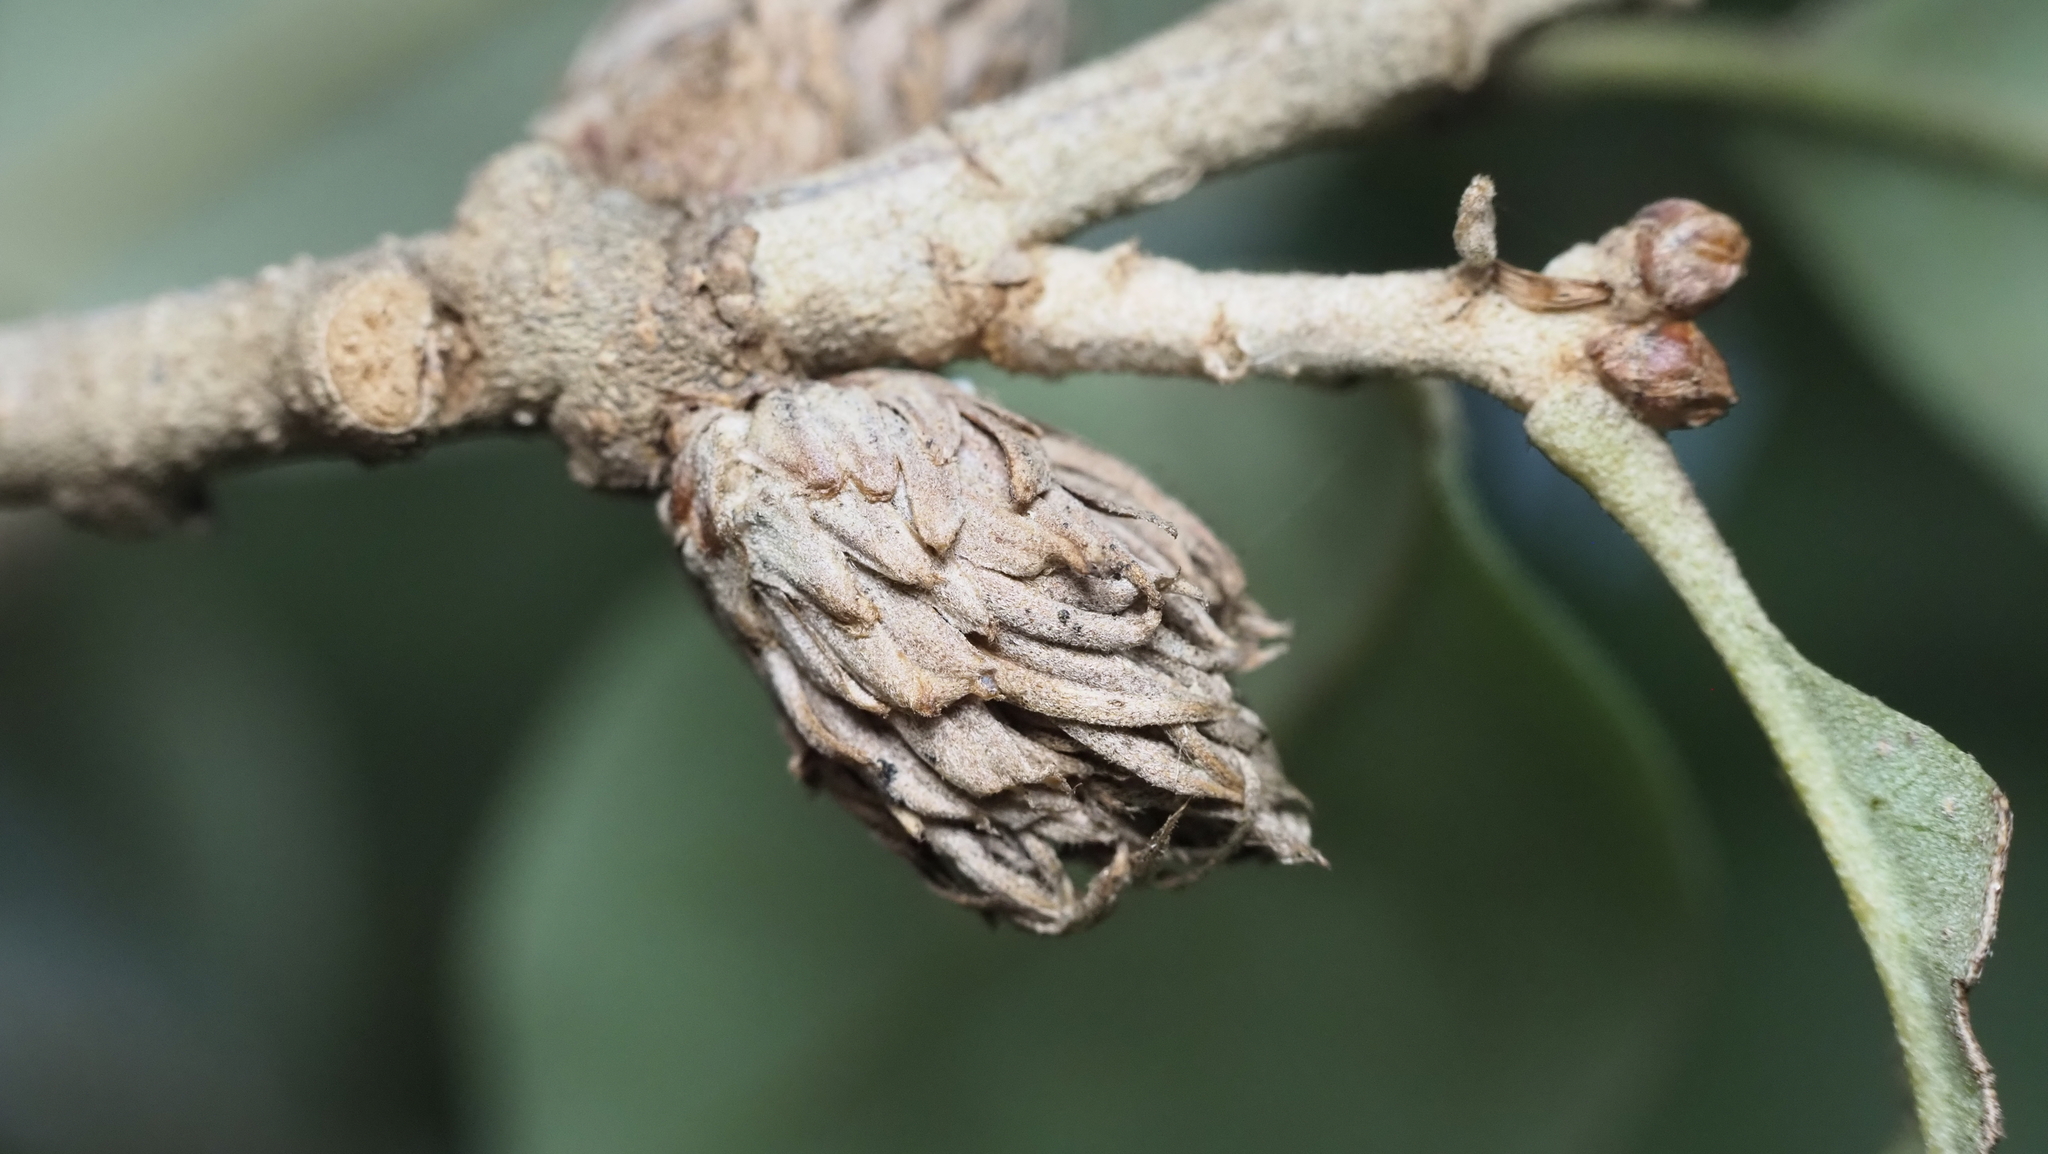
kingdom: Animalia
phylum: Arthropoda
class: Insecta
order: Hymenoptera
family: Cynipidae
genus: Andricus
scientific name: Andricus quercusfoliatus
